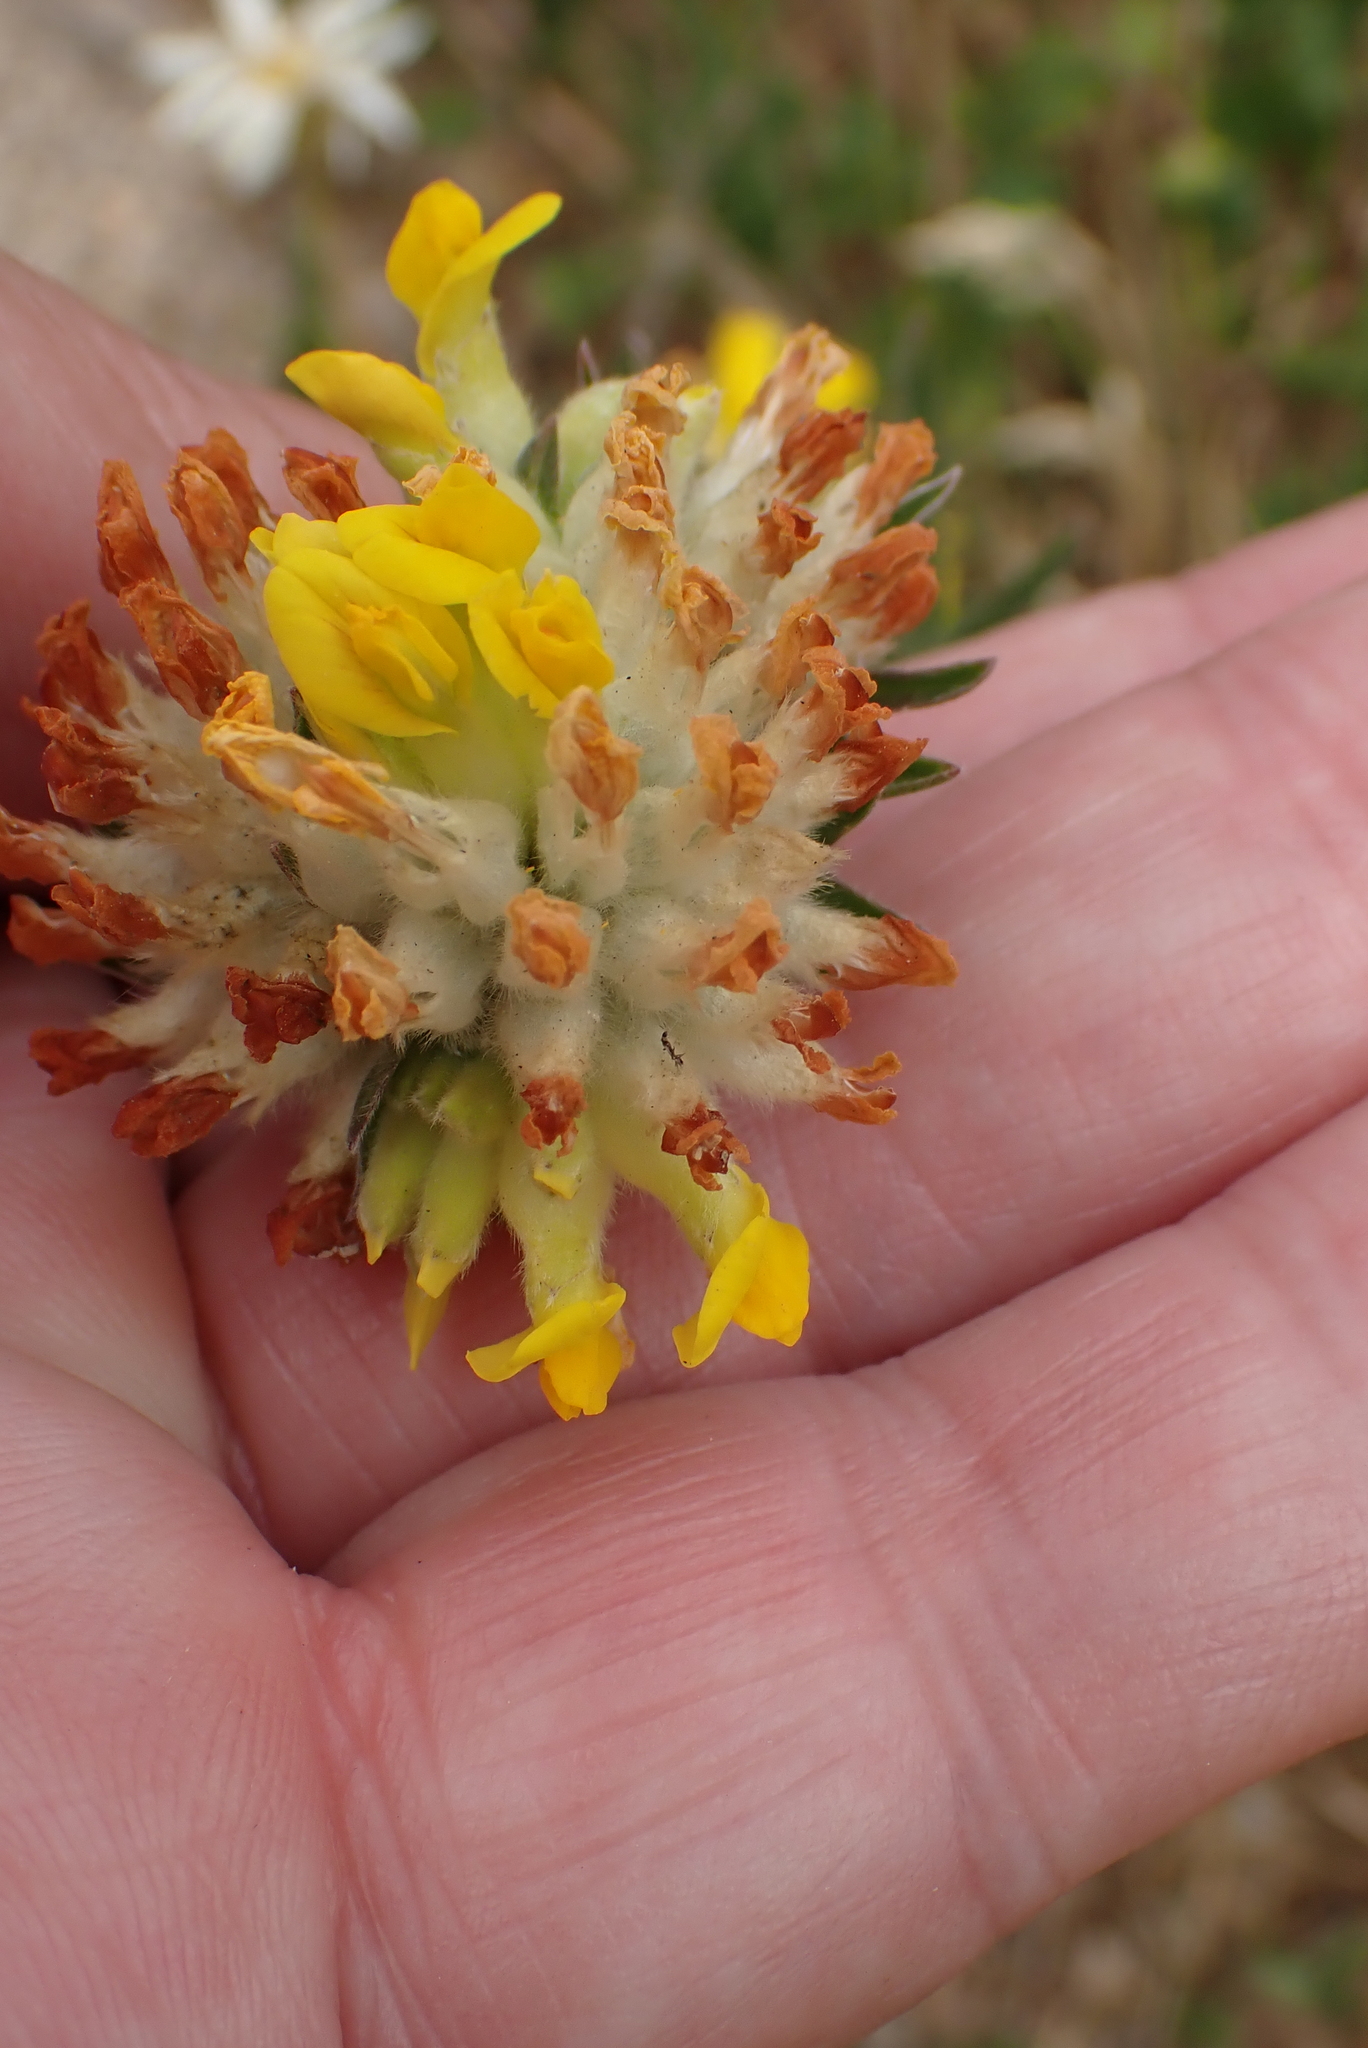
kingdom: Plantae
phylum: Tracheophyta
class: Magnoliopsida
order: Fabales
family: Fabaceae
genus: Anthyllis
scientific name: Anthyllis vulneraria
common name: Kidney vetch
